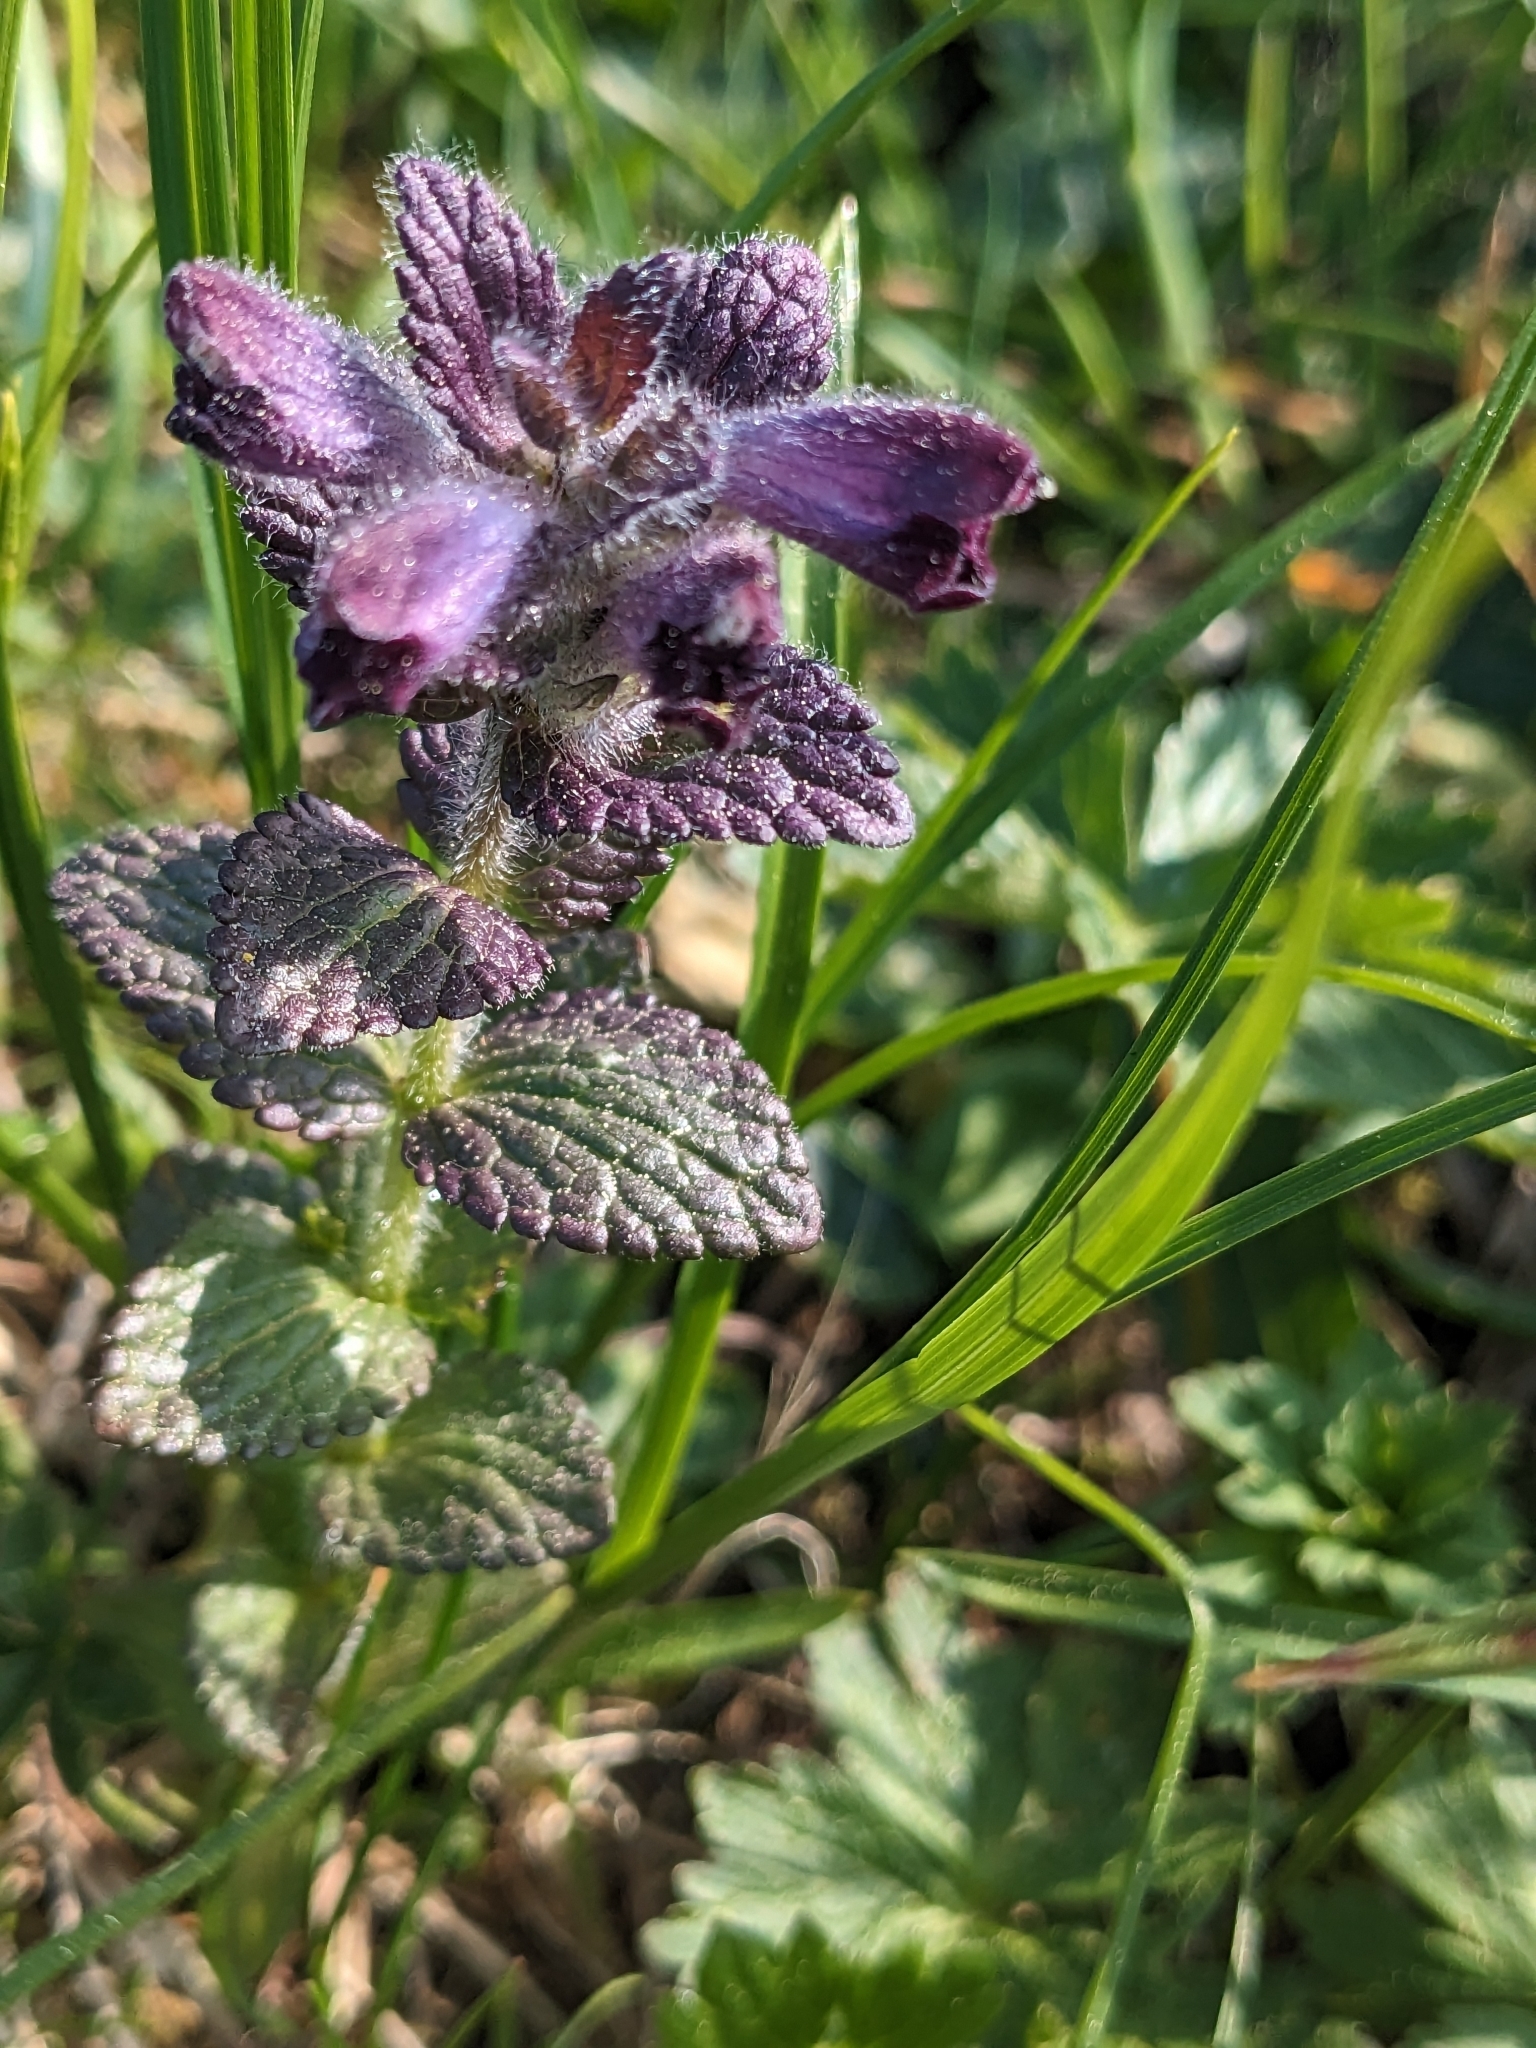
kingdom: Plantae
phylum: Tracheophyta
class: Magnoliopsida
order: Lamiales
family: Orobanchaceae
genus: Bartsia
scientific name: Bartsia alpina
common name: Alpine bartsia
